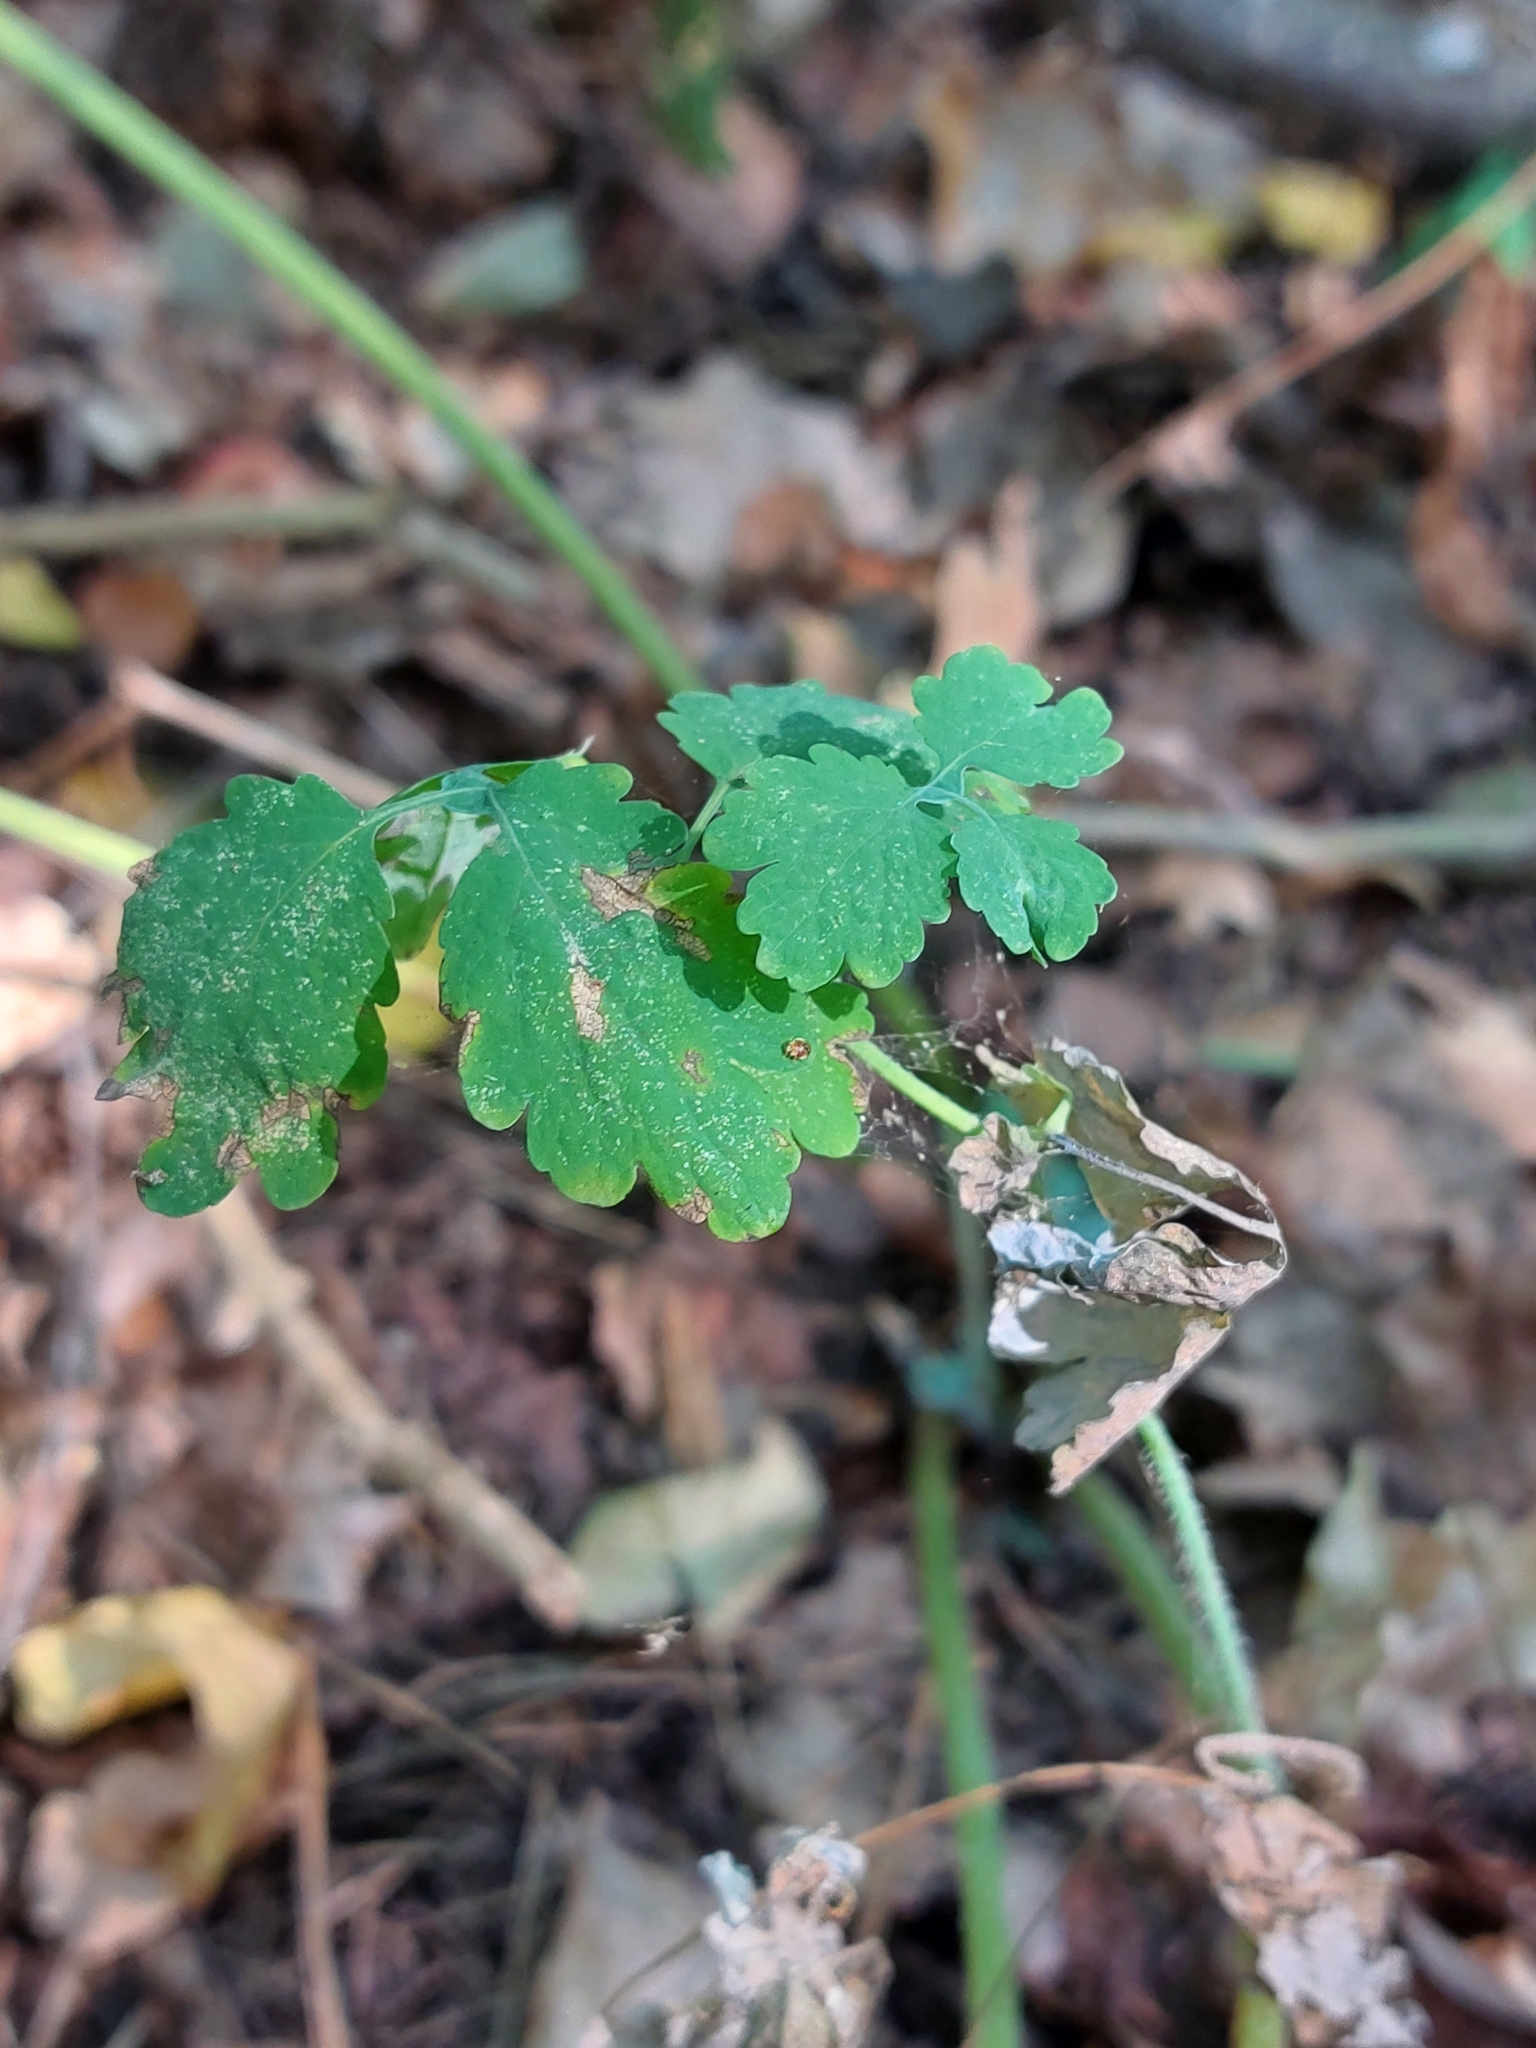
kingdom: Plantae
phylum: Tracheophyta
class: Magnoliopsida
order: Ranunculales
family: Papaveraceae
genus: Chelidonium
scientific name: Chelidonium majus
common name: Greater celandine
